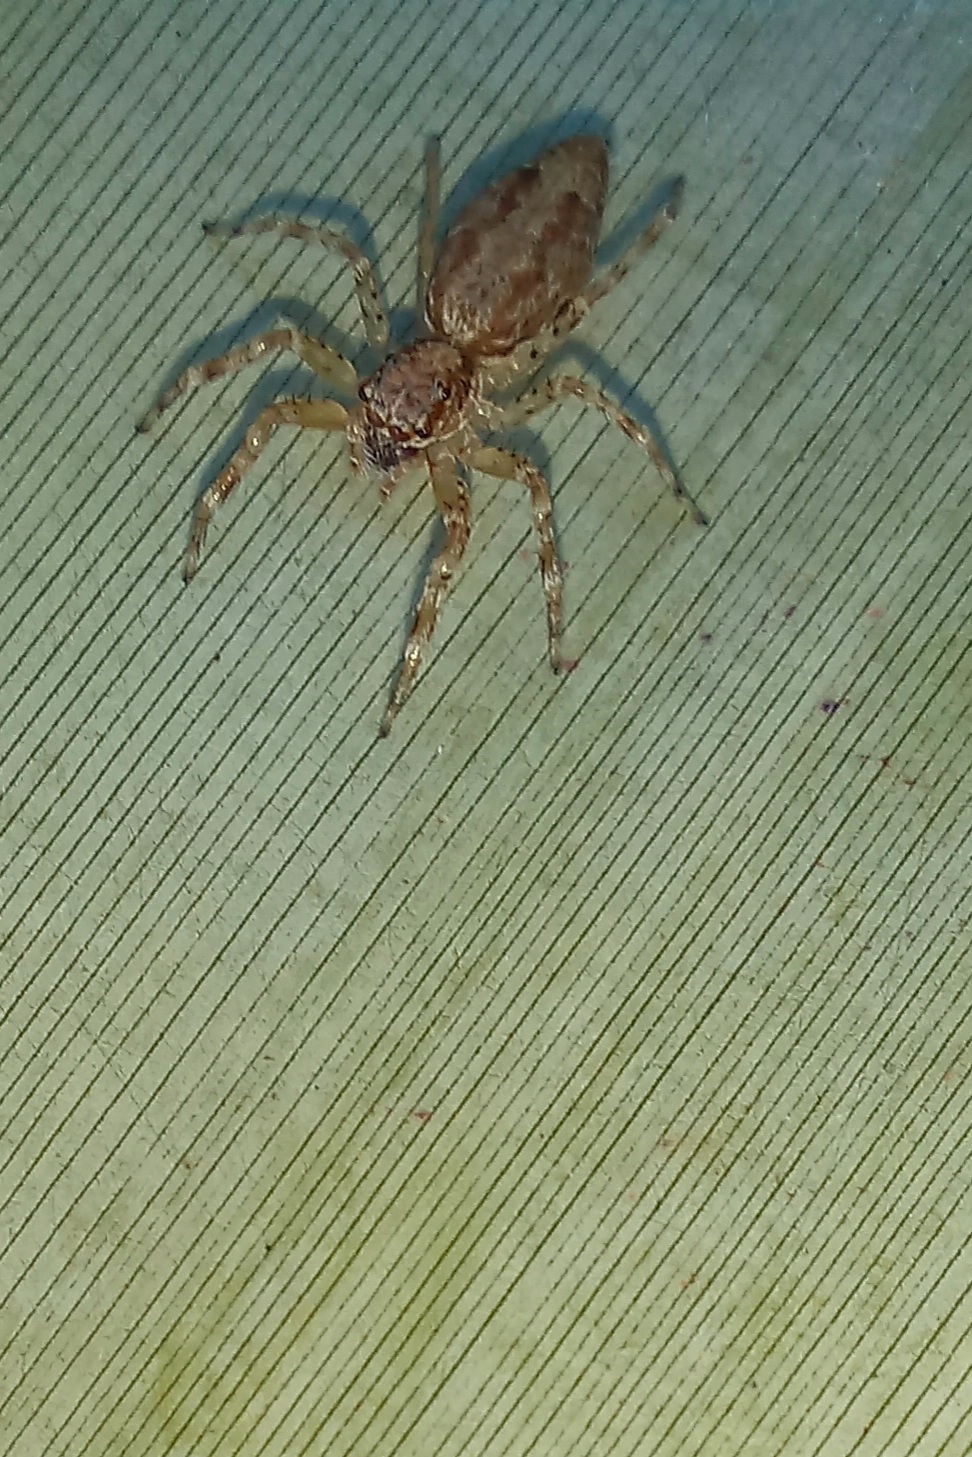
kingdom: Animalia
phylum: Arthropoda
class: Arachnida
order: Araneae
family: Salticidae
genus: Helpis
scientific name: Helpis minitabunda
